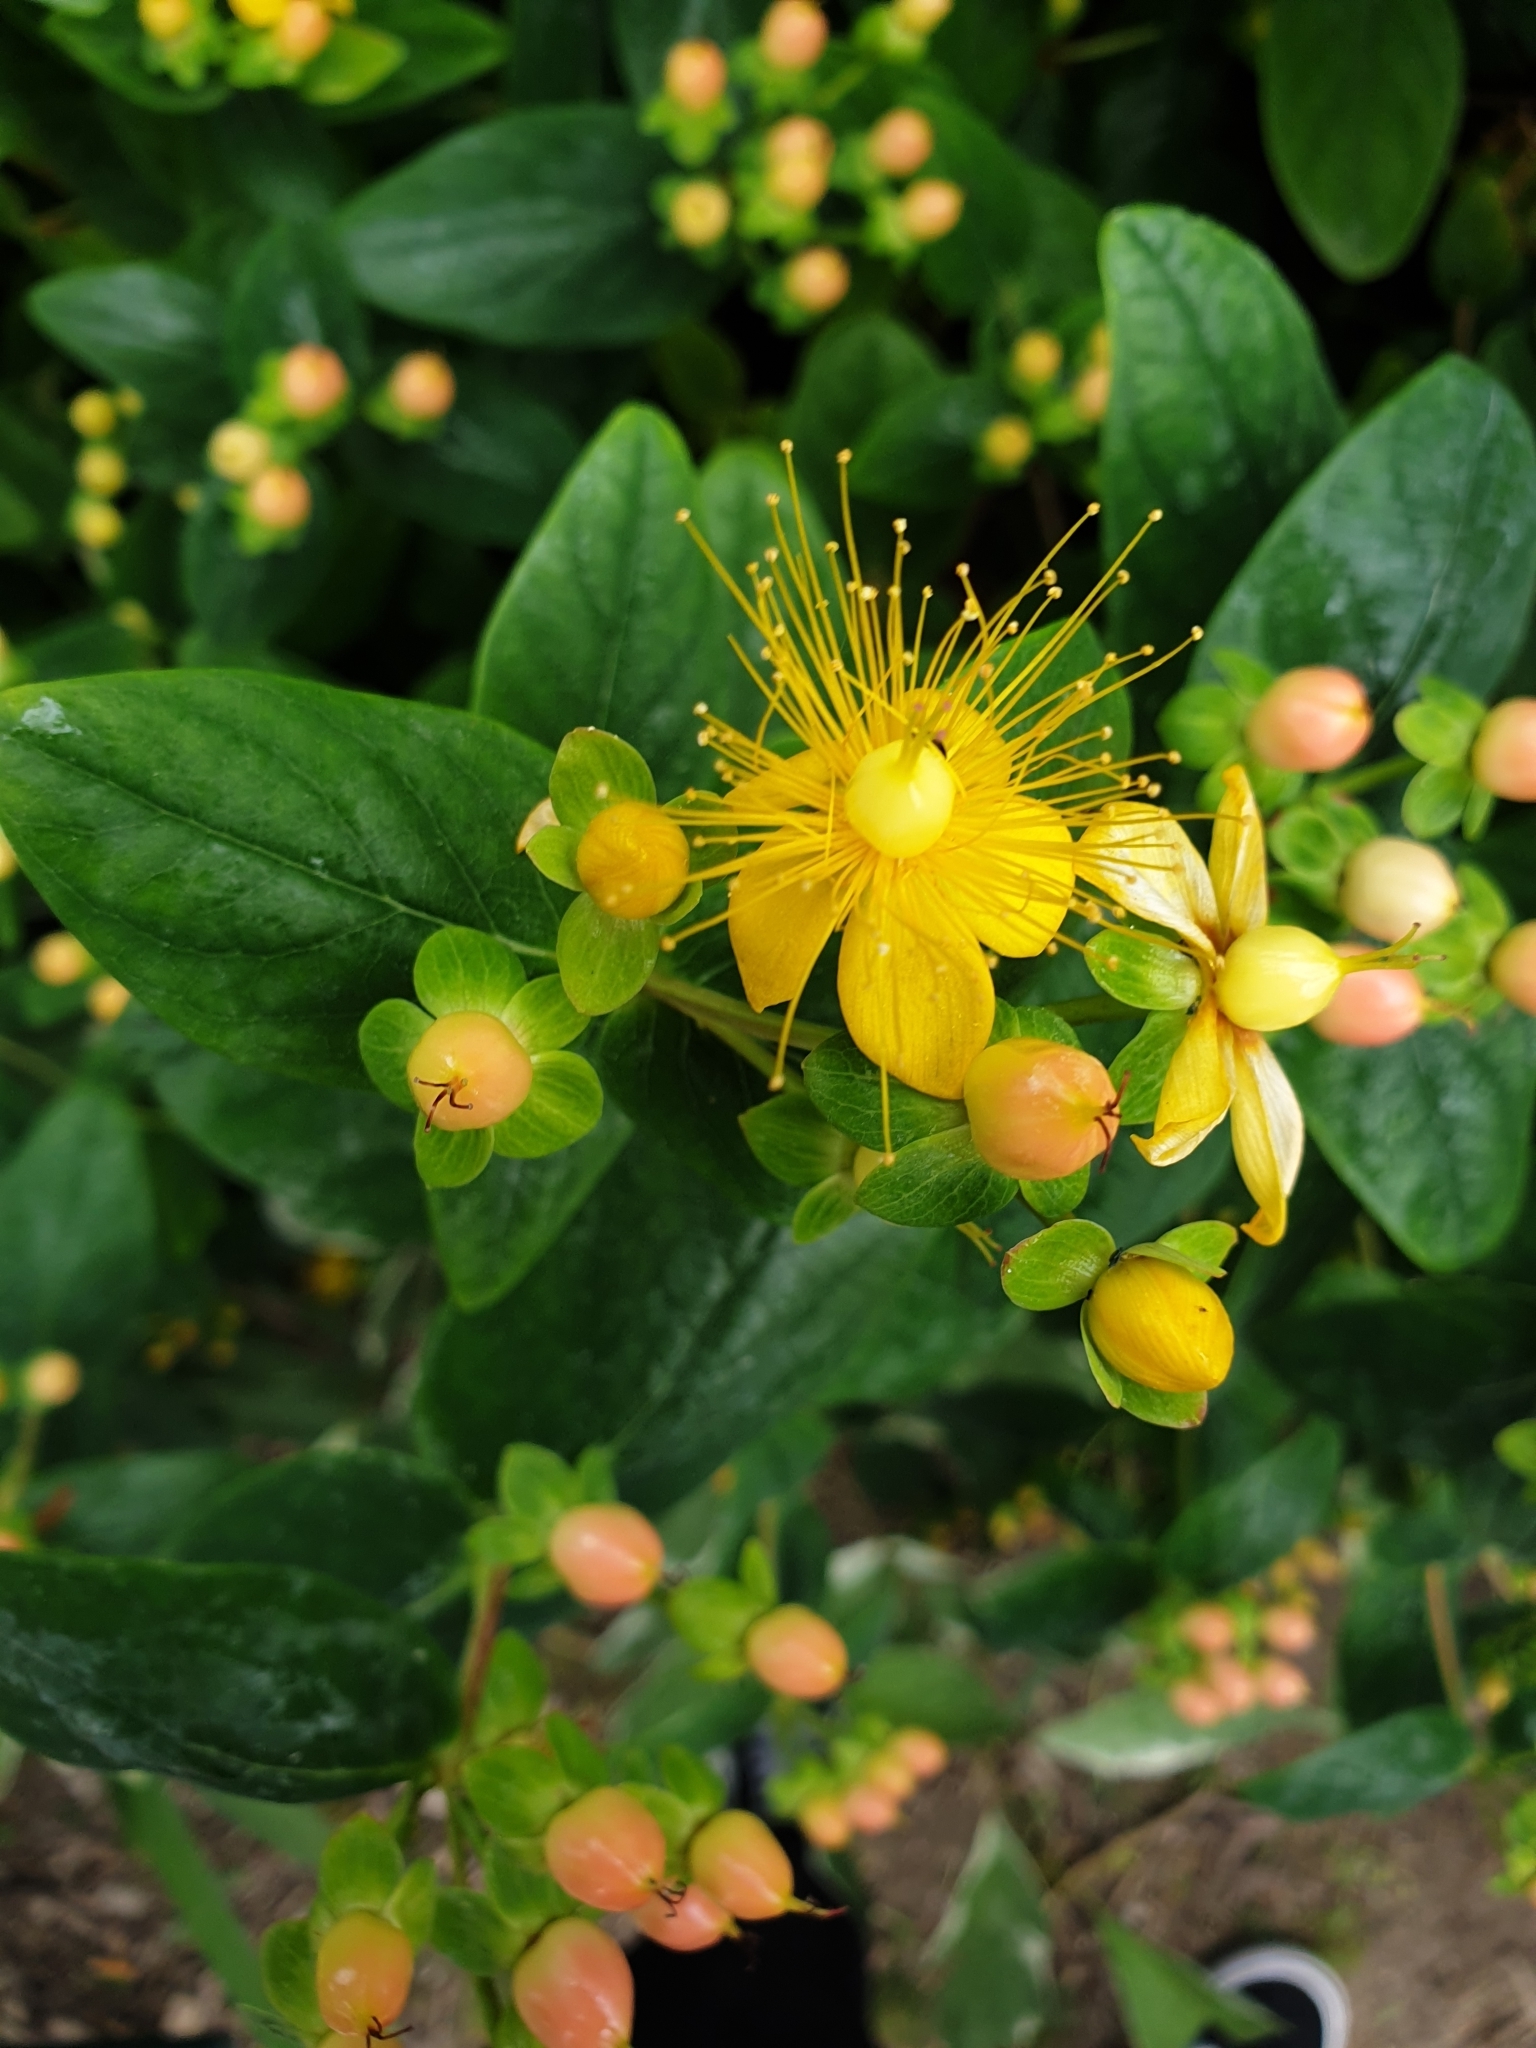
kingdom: Plantae
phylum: Tracheophyta
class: Magnoliopsida
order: Malpighiales
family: Hypericaceae
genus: Hypericum
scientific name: Hypericum androsaemum
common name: Sweet-amber
